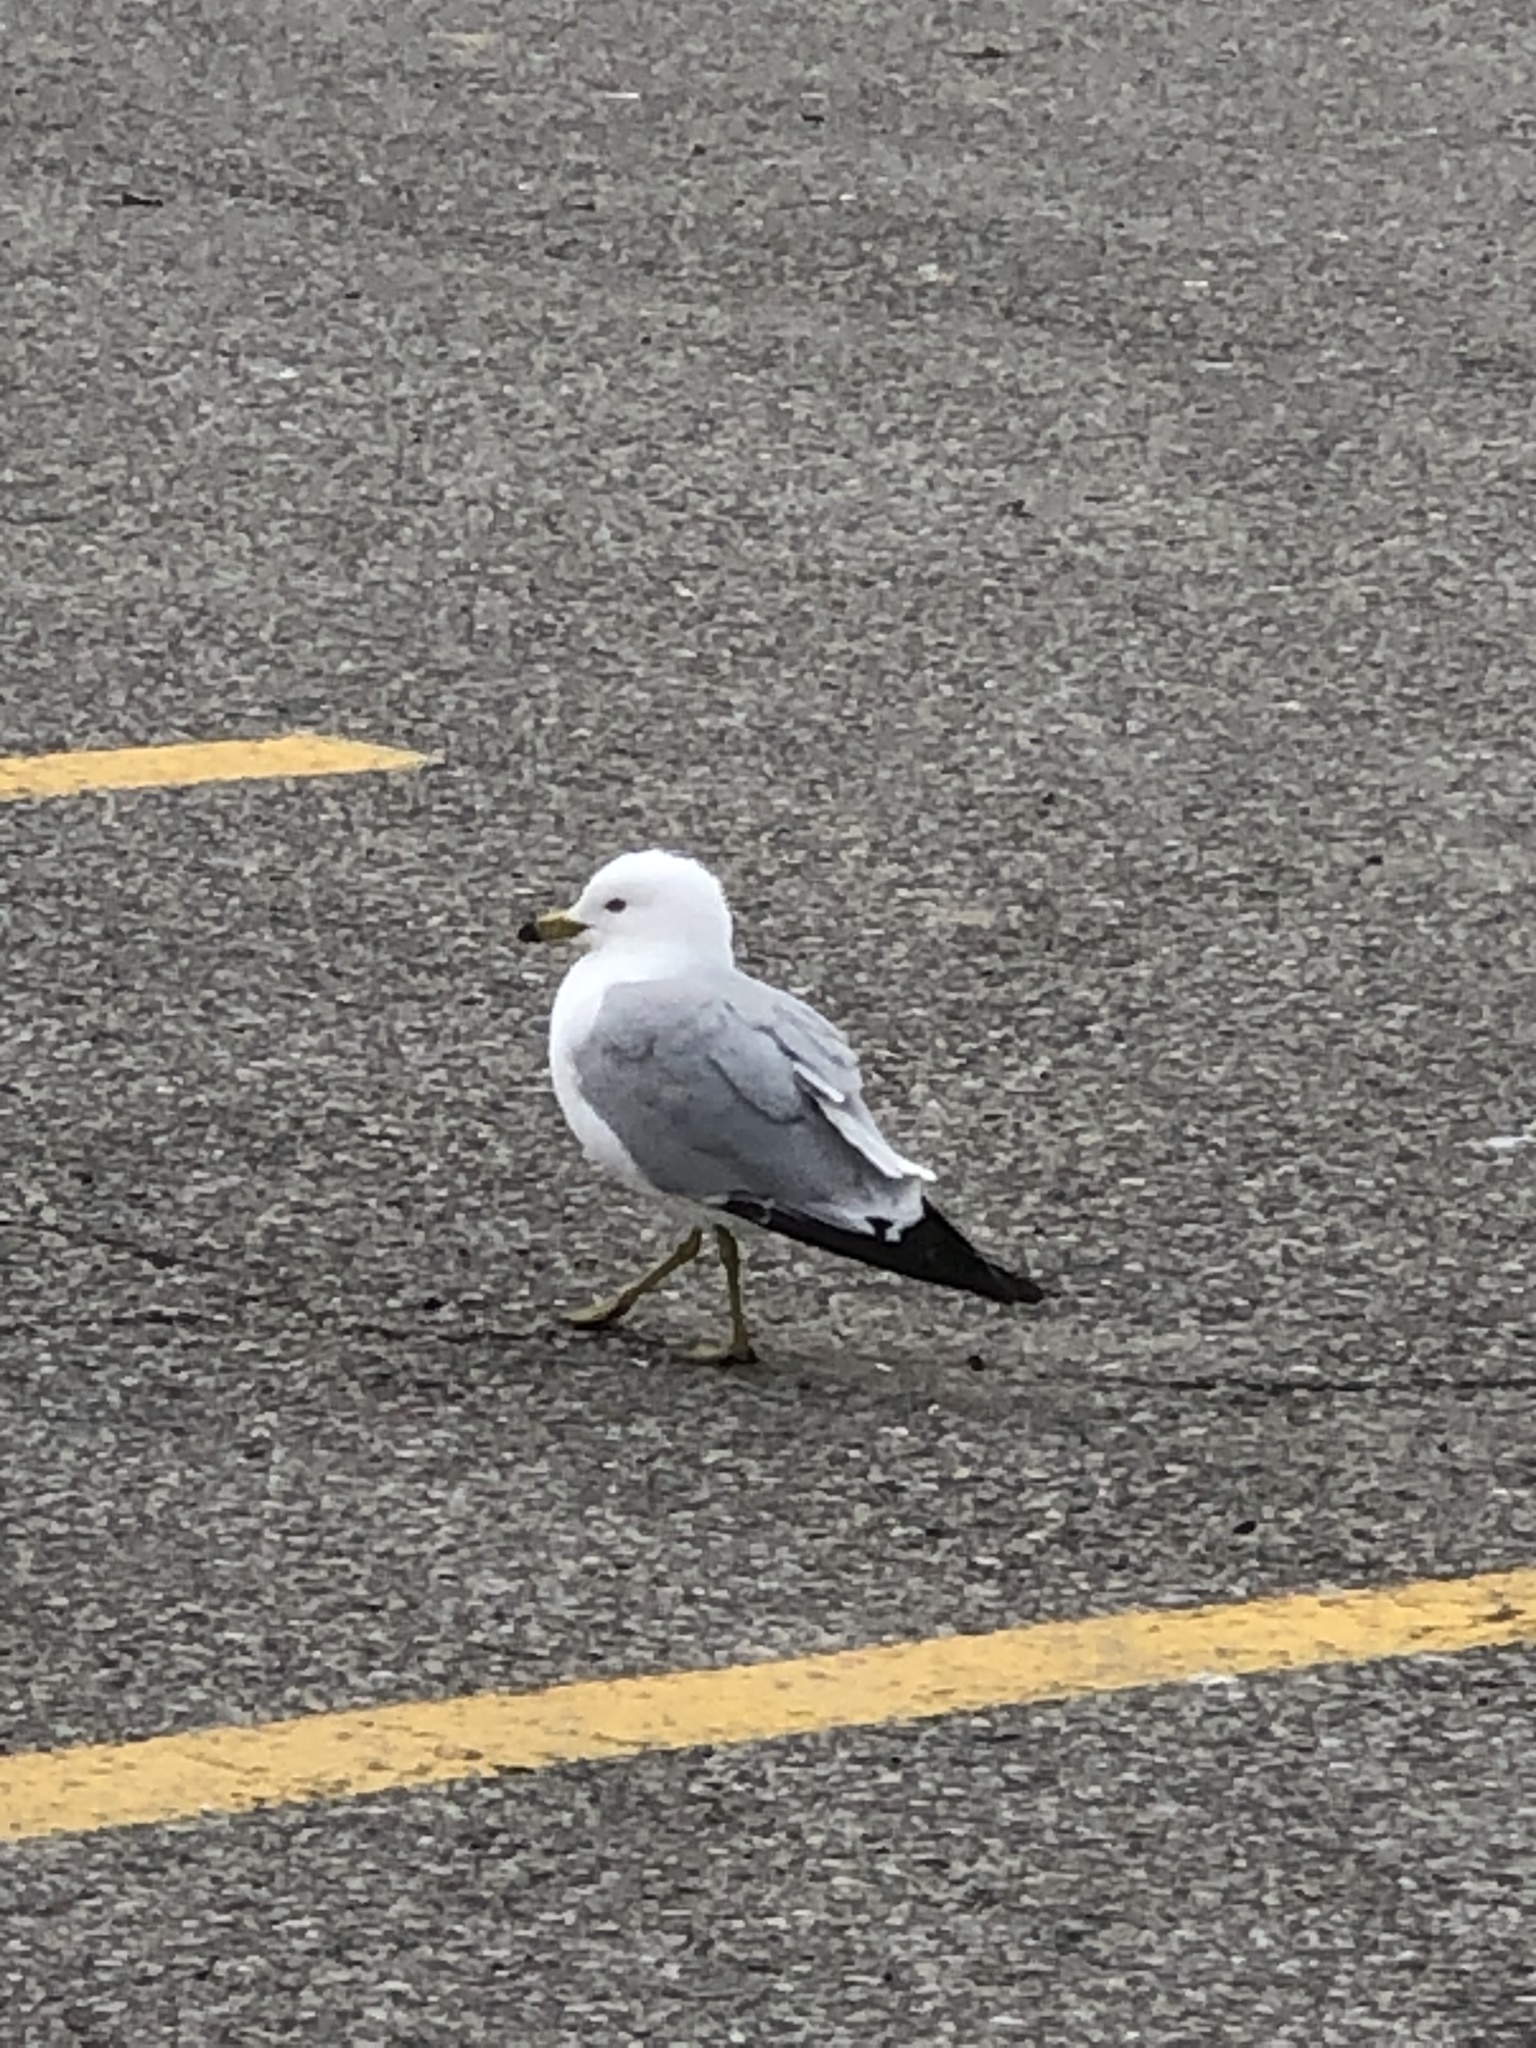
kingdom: Animalia
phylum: Chordata
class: Aves
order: Charadriiformes
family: Laridae
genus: Larus
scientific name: Larus delawarensis
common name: Ring-billed gull
